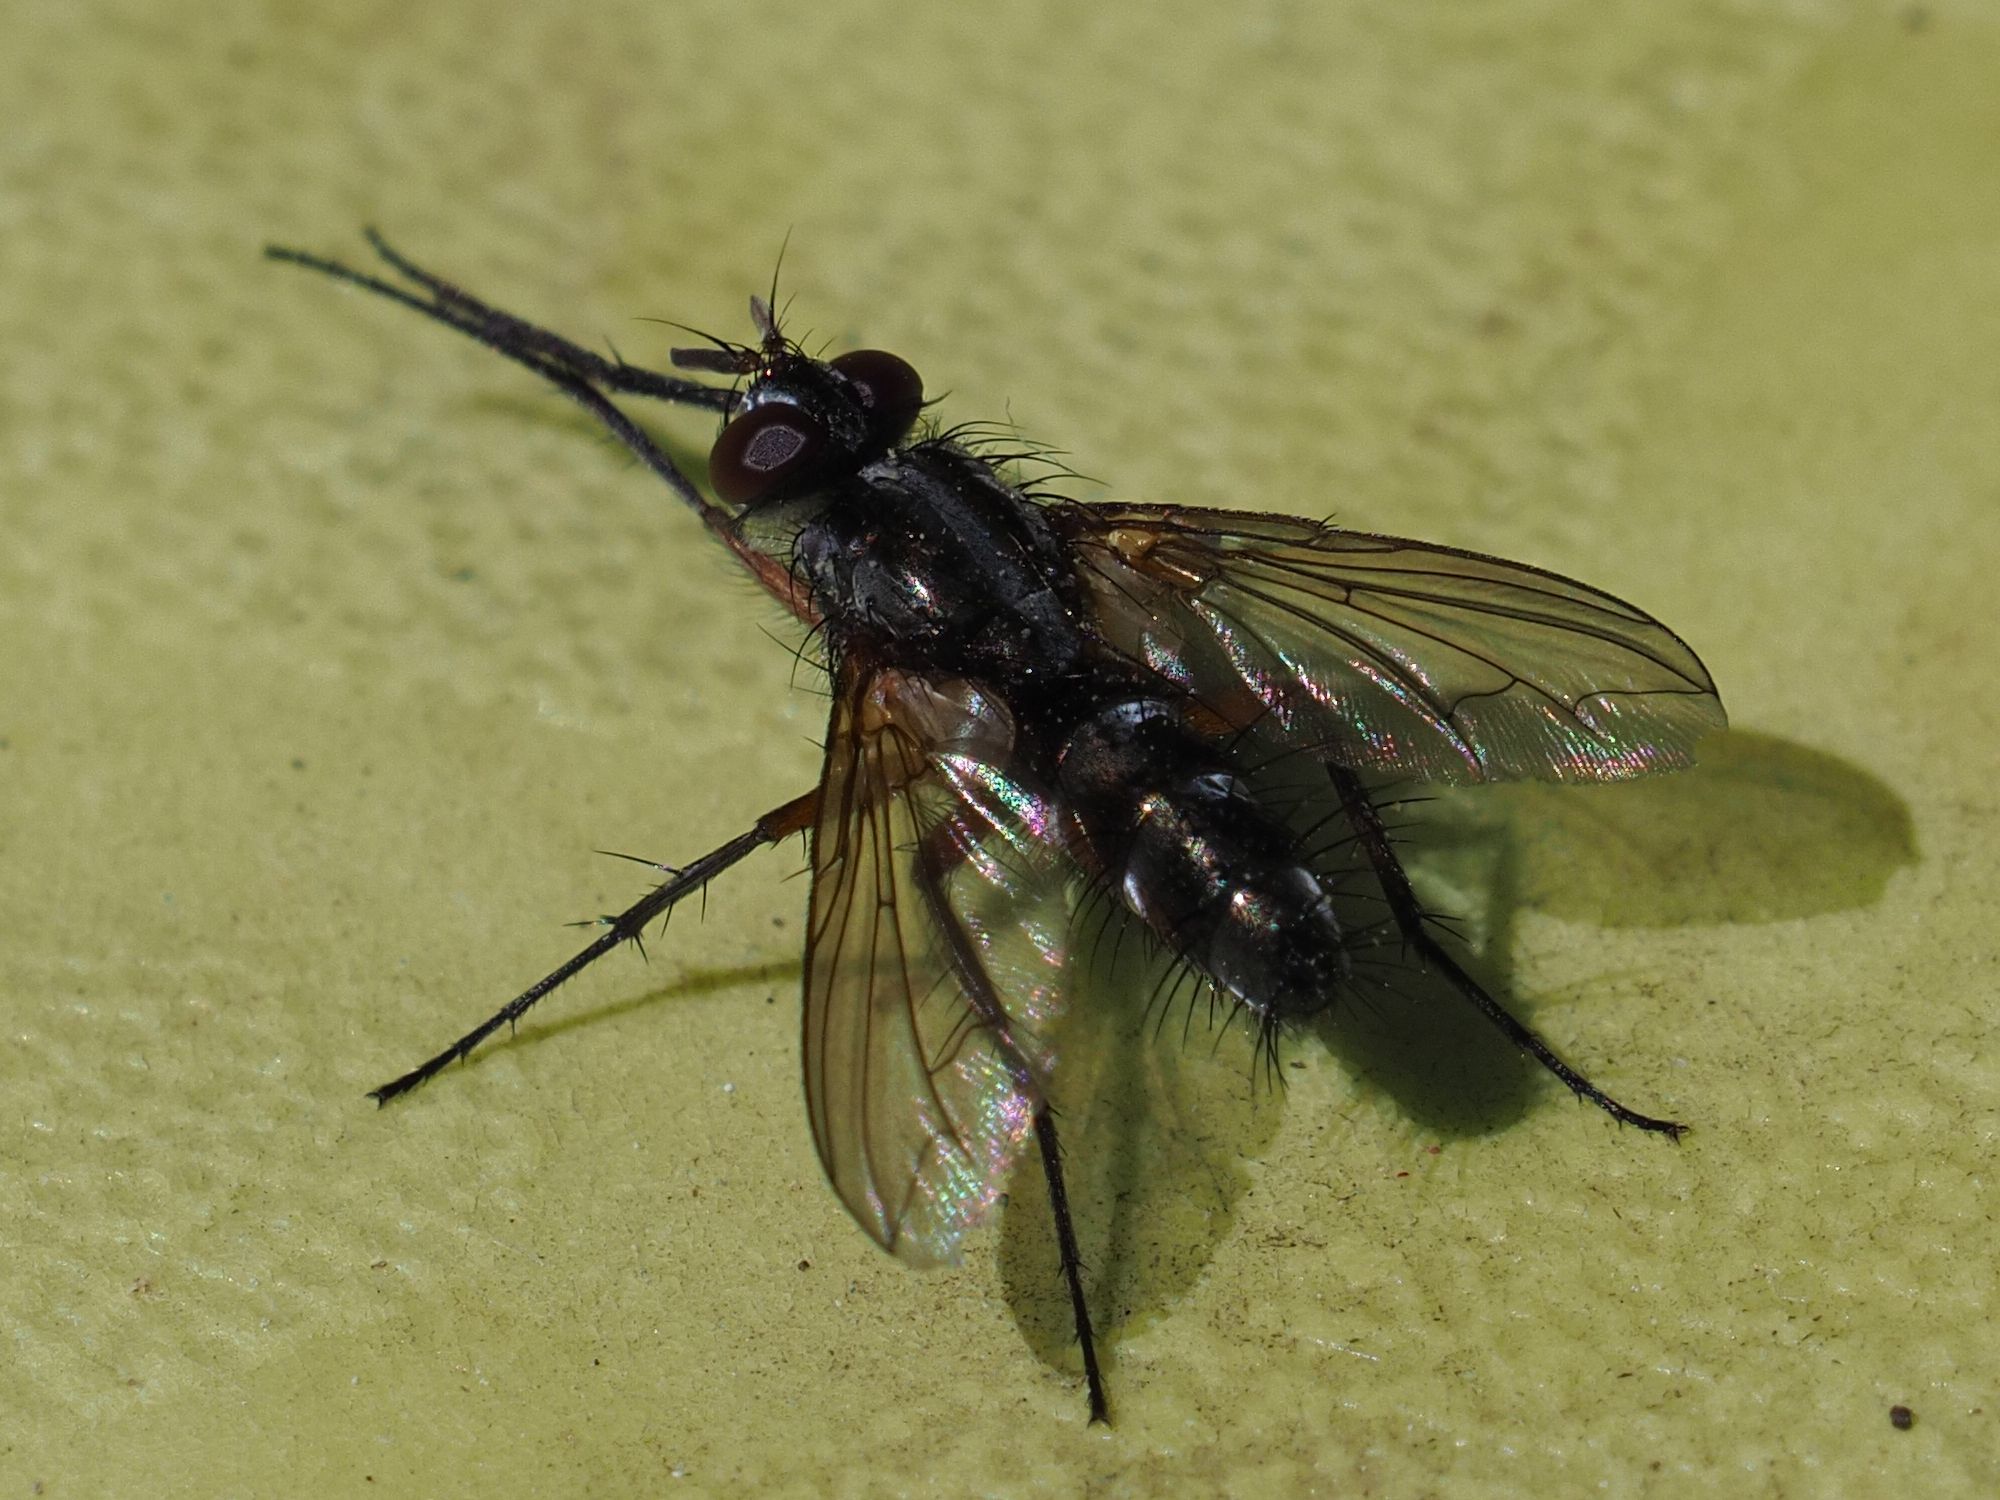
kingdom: Animalia
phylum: Arthropoda
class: Insecta
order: Diptera
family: Tachinidae
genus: Mintho
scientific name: Mintho rufiventris
